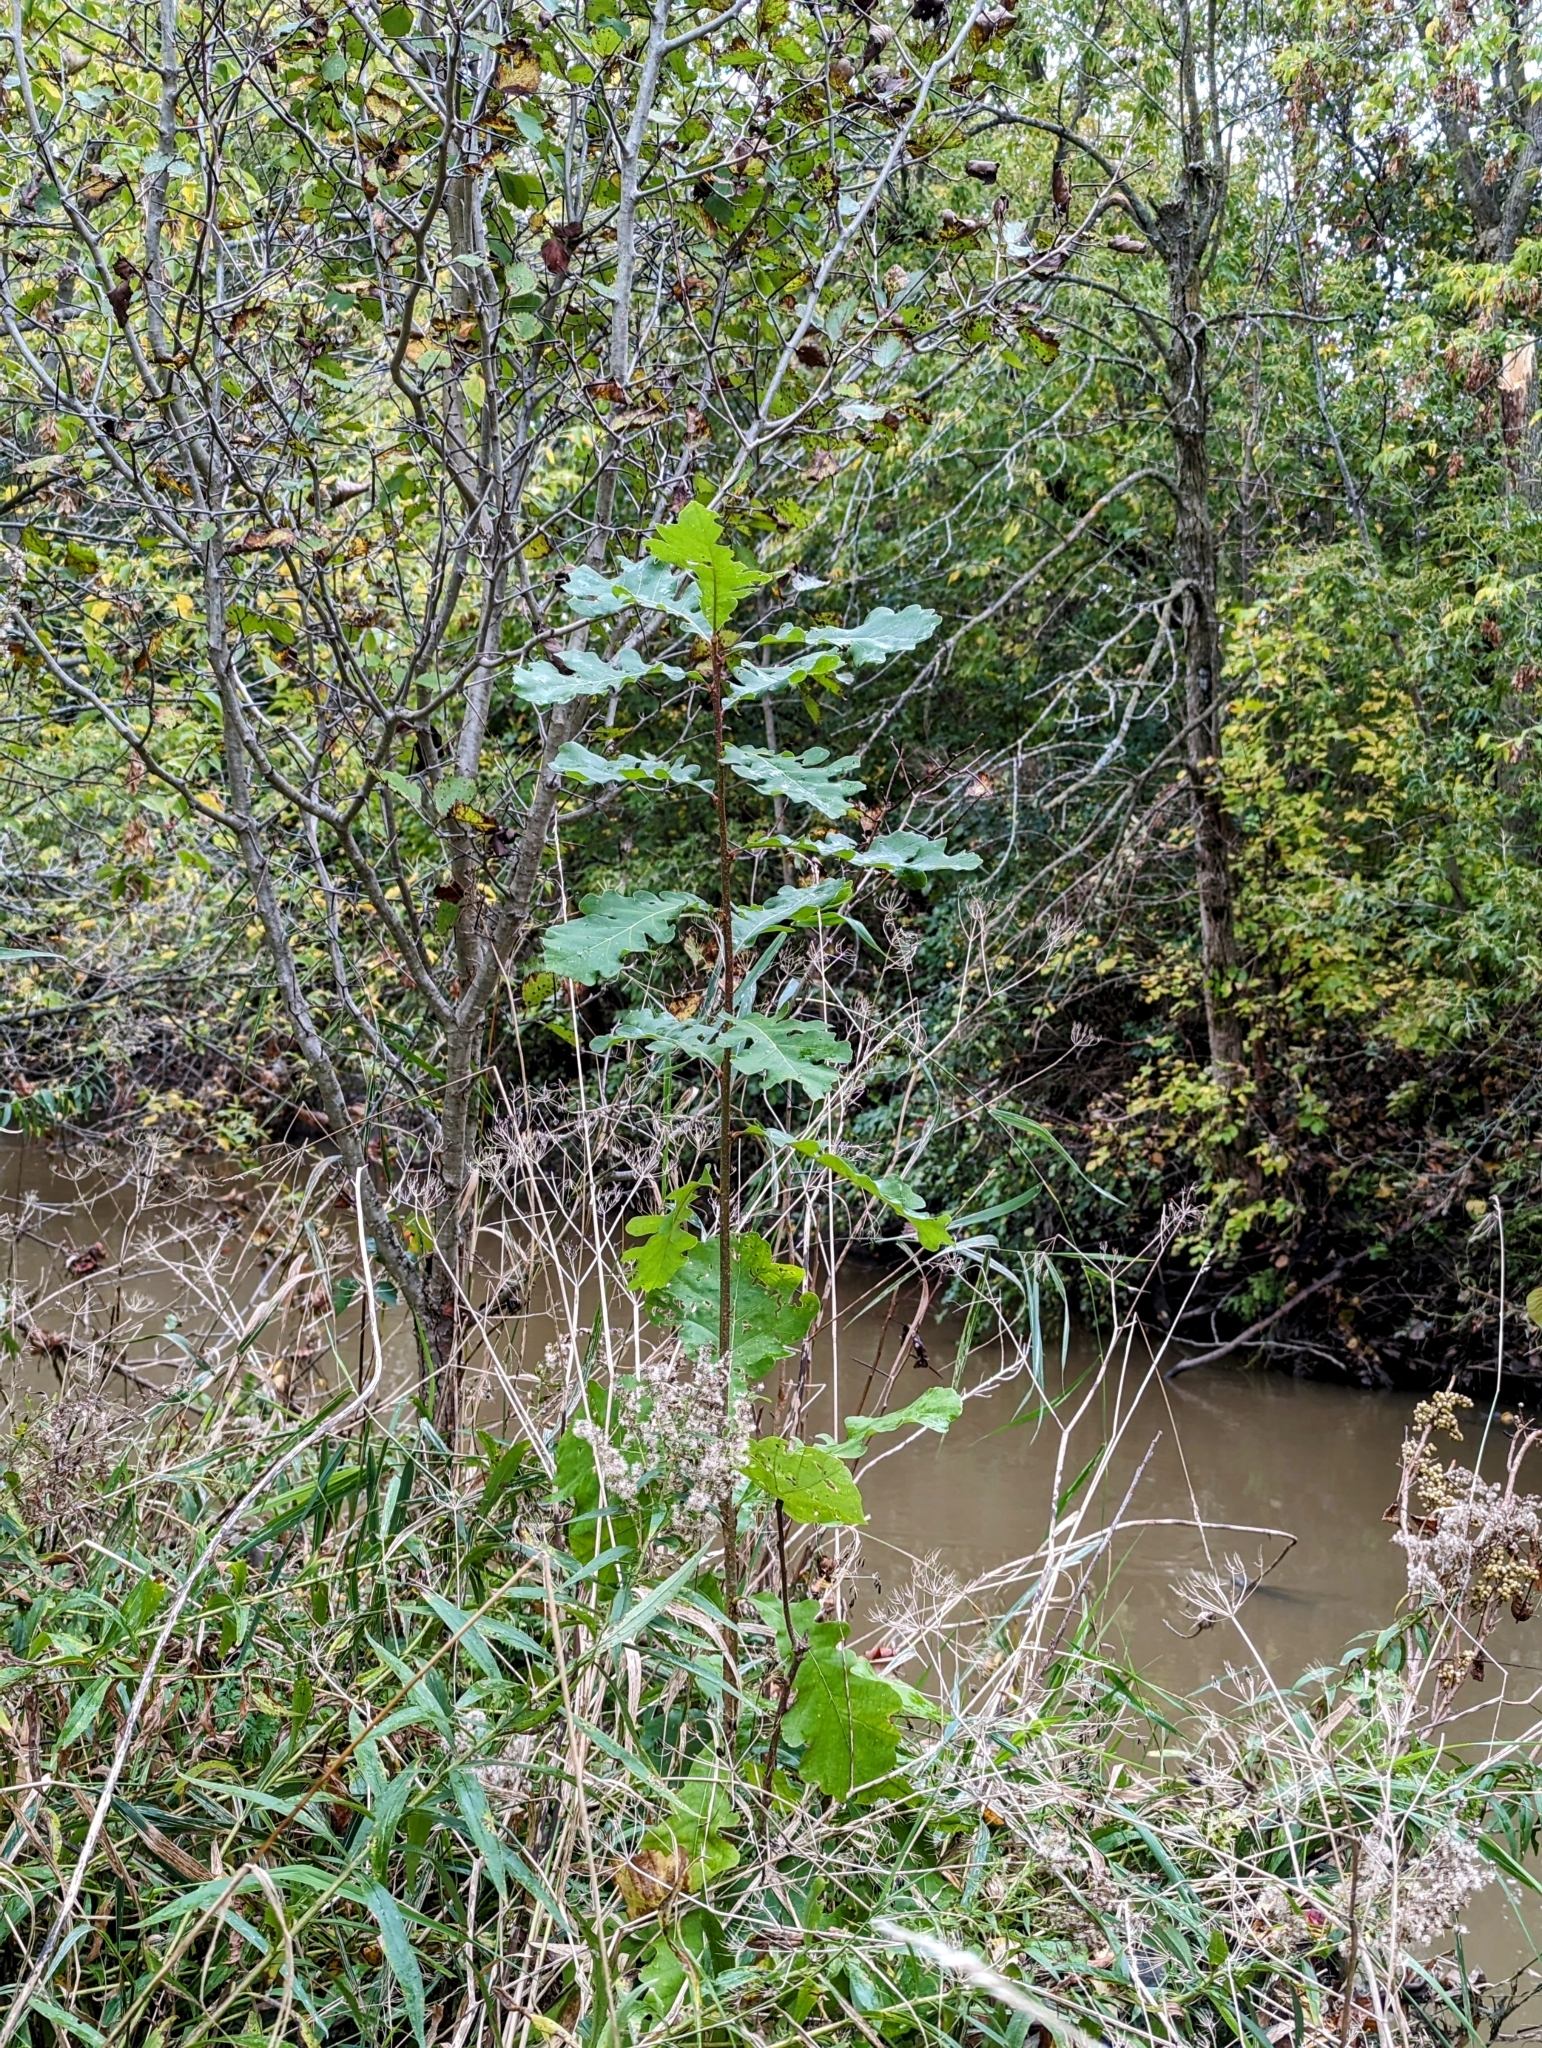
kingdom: Plantae
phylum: Tracheophyta
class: Magnoliopsida
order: Fagales
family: Fagaceae
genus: Quercus
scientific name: Quercus macrocarpa
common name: Bur oak
